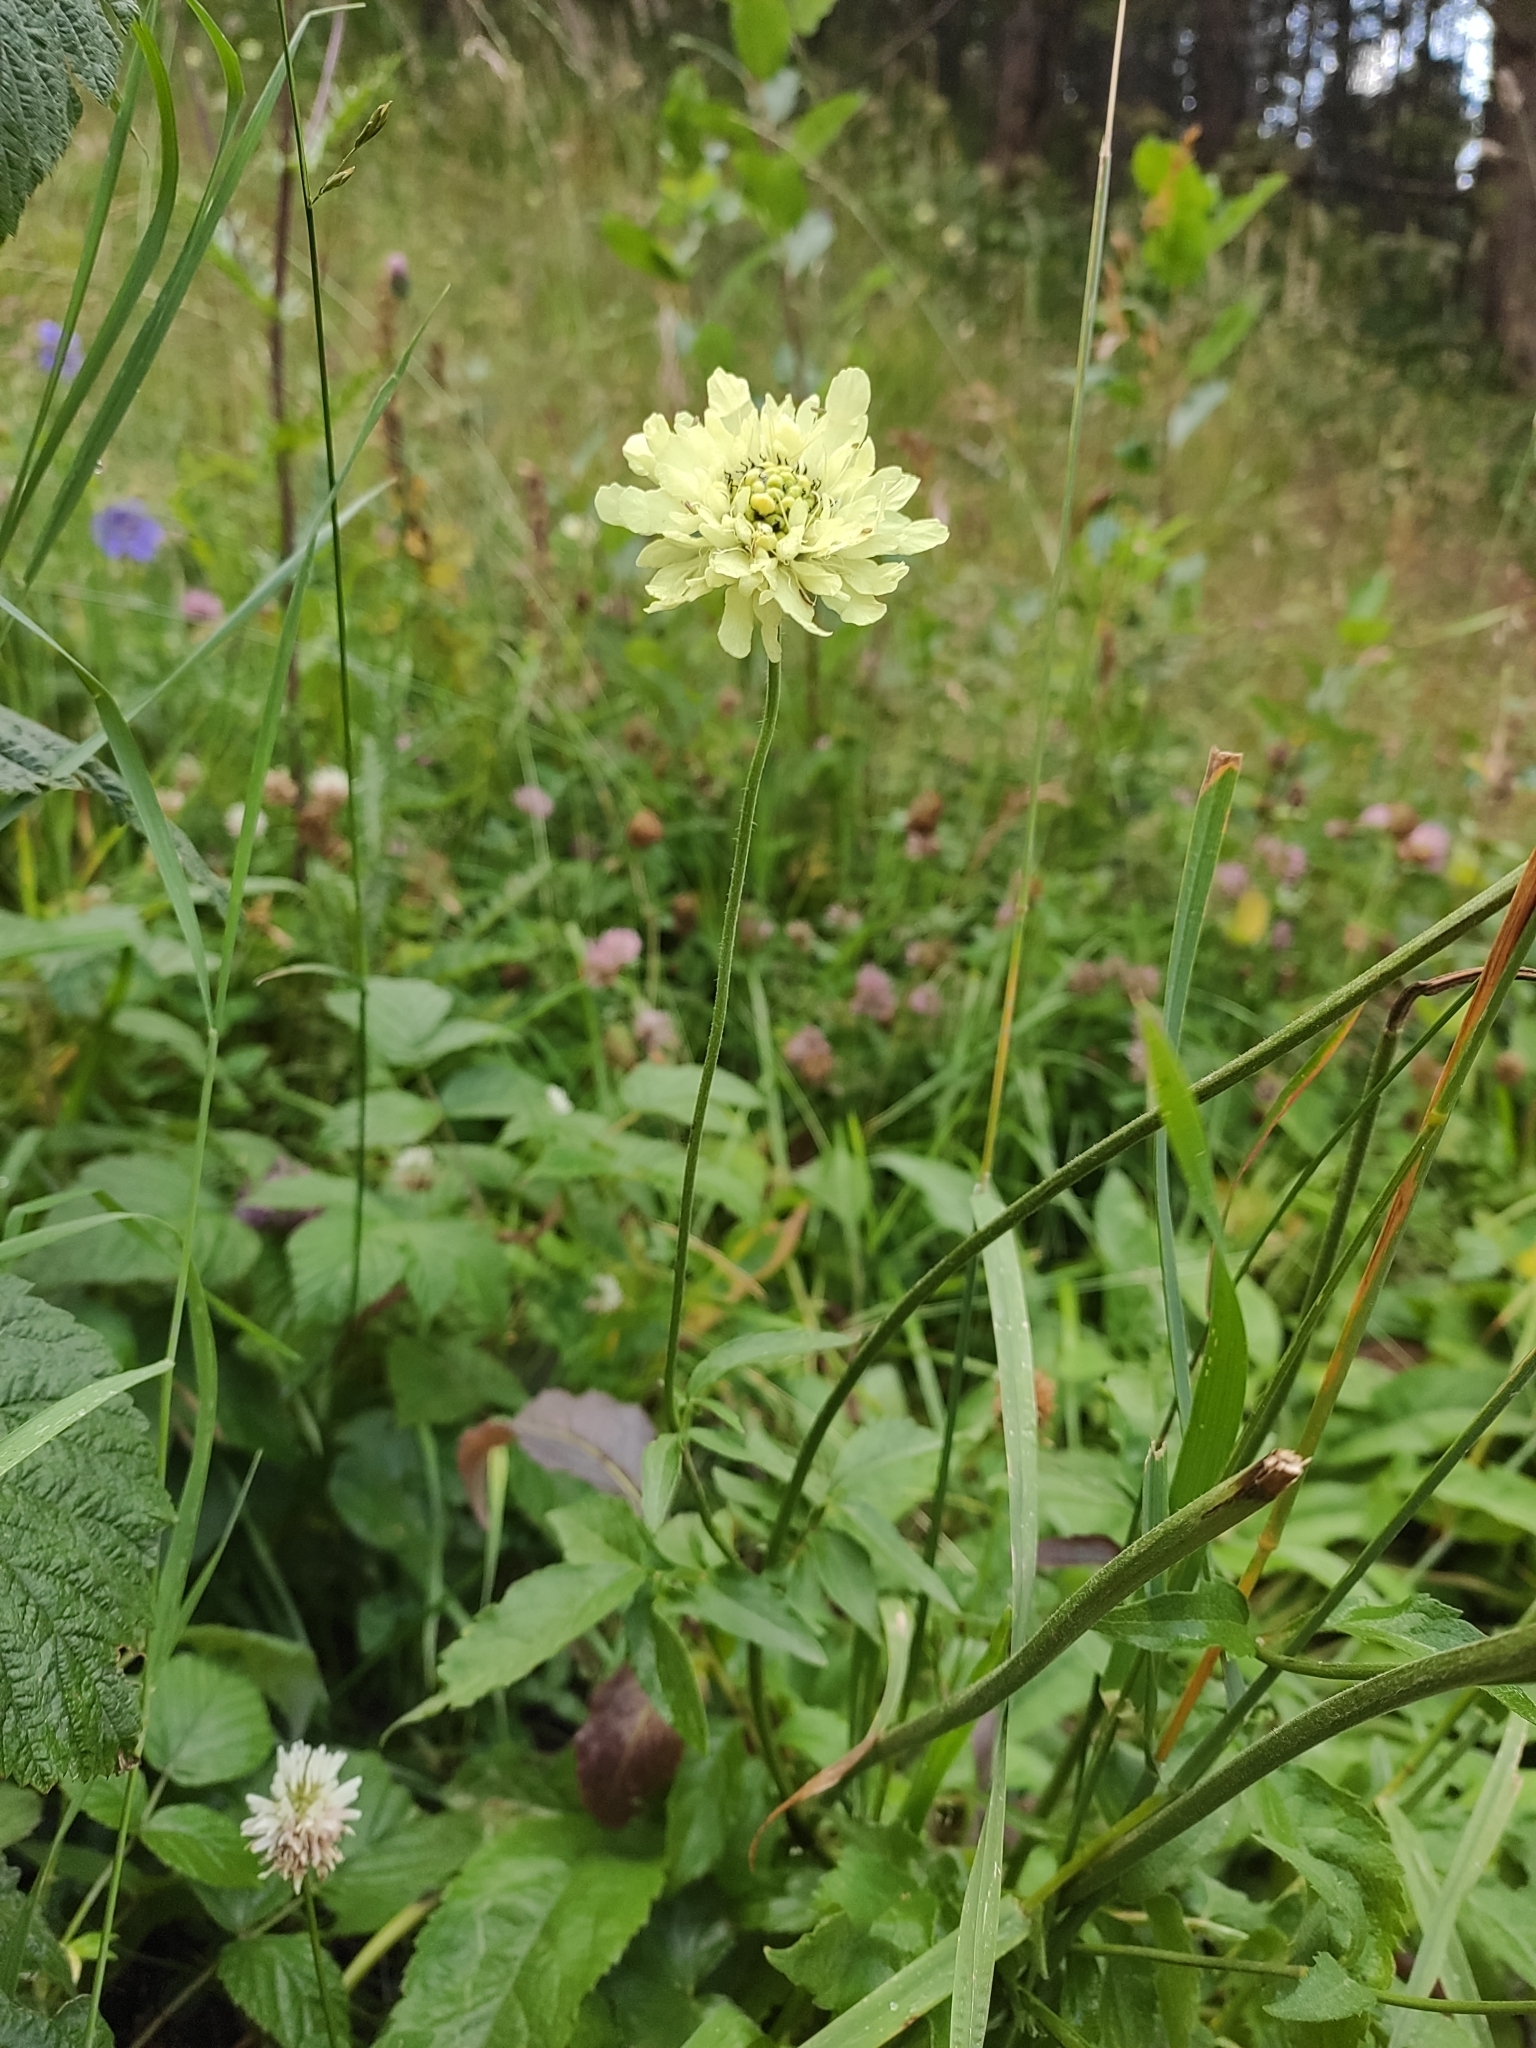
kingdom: Plantae
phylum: Tracheophyta
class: Magnoliopsida
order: Dipsacales
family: Caprifoliaceae
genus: Cephalaria
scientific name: Cephalaria gigantea
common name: Tatarian cephalaria
